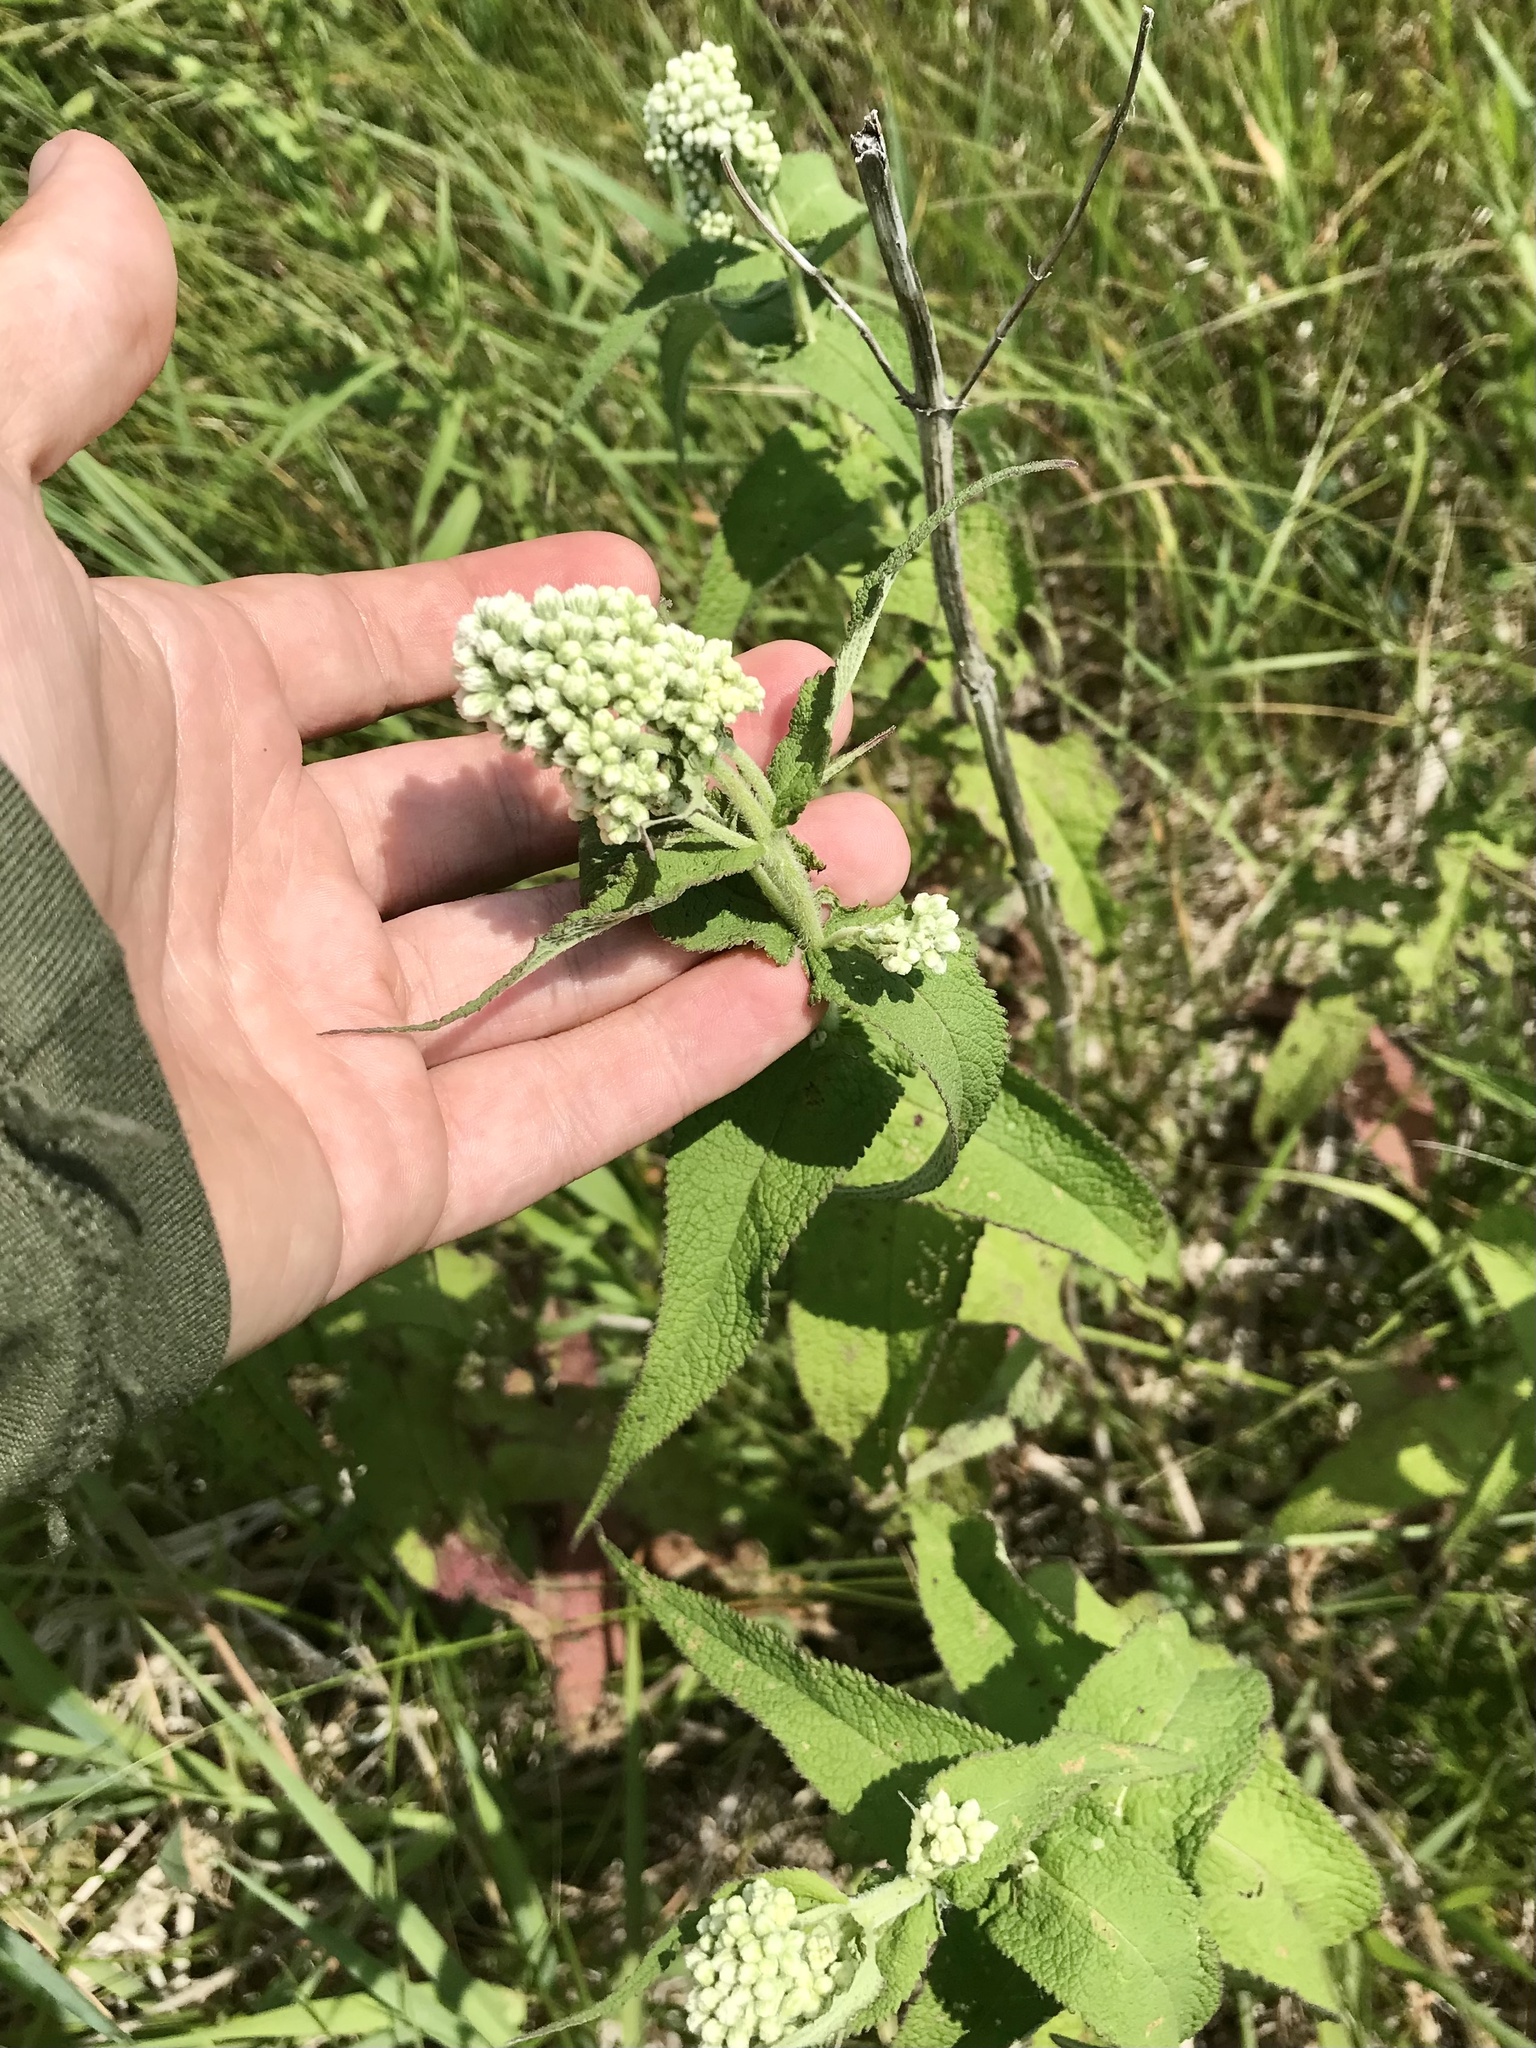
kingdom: Plantae
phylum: Tracheophyta
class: Magnoliopsida
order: Asterales
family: Asteraceae
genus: Eupatorium
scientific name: Eupatorium perfoliatum
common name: Boneset
